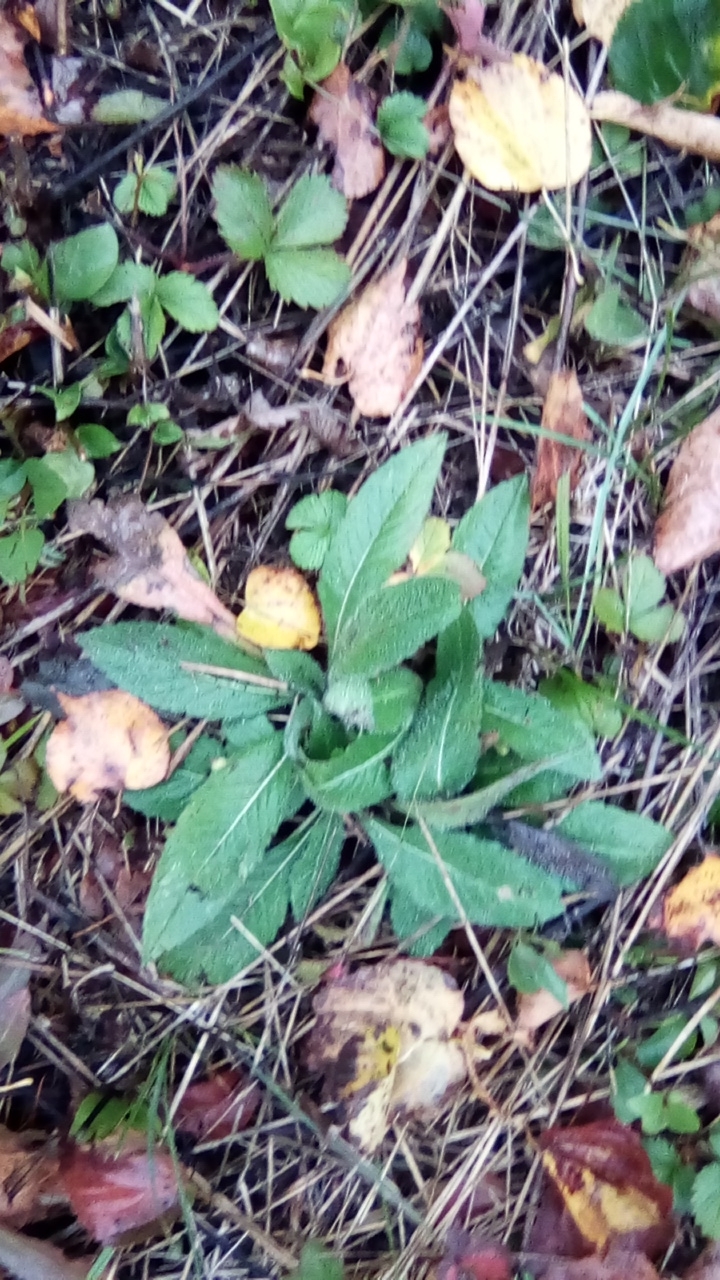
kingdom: Plantae
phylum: Tracheophyta
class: Magnoliopsida
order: Dipsacales
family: Caprifoliaceae
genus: Knautia
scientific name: Knautia arvensis
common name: Field scabiosa
